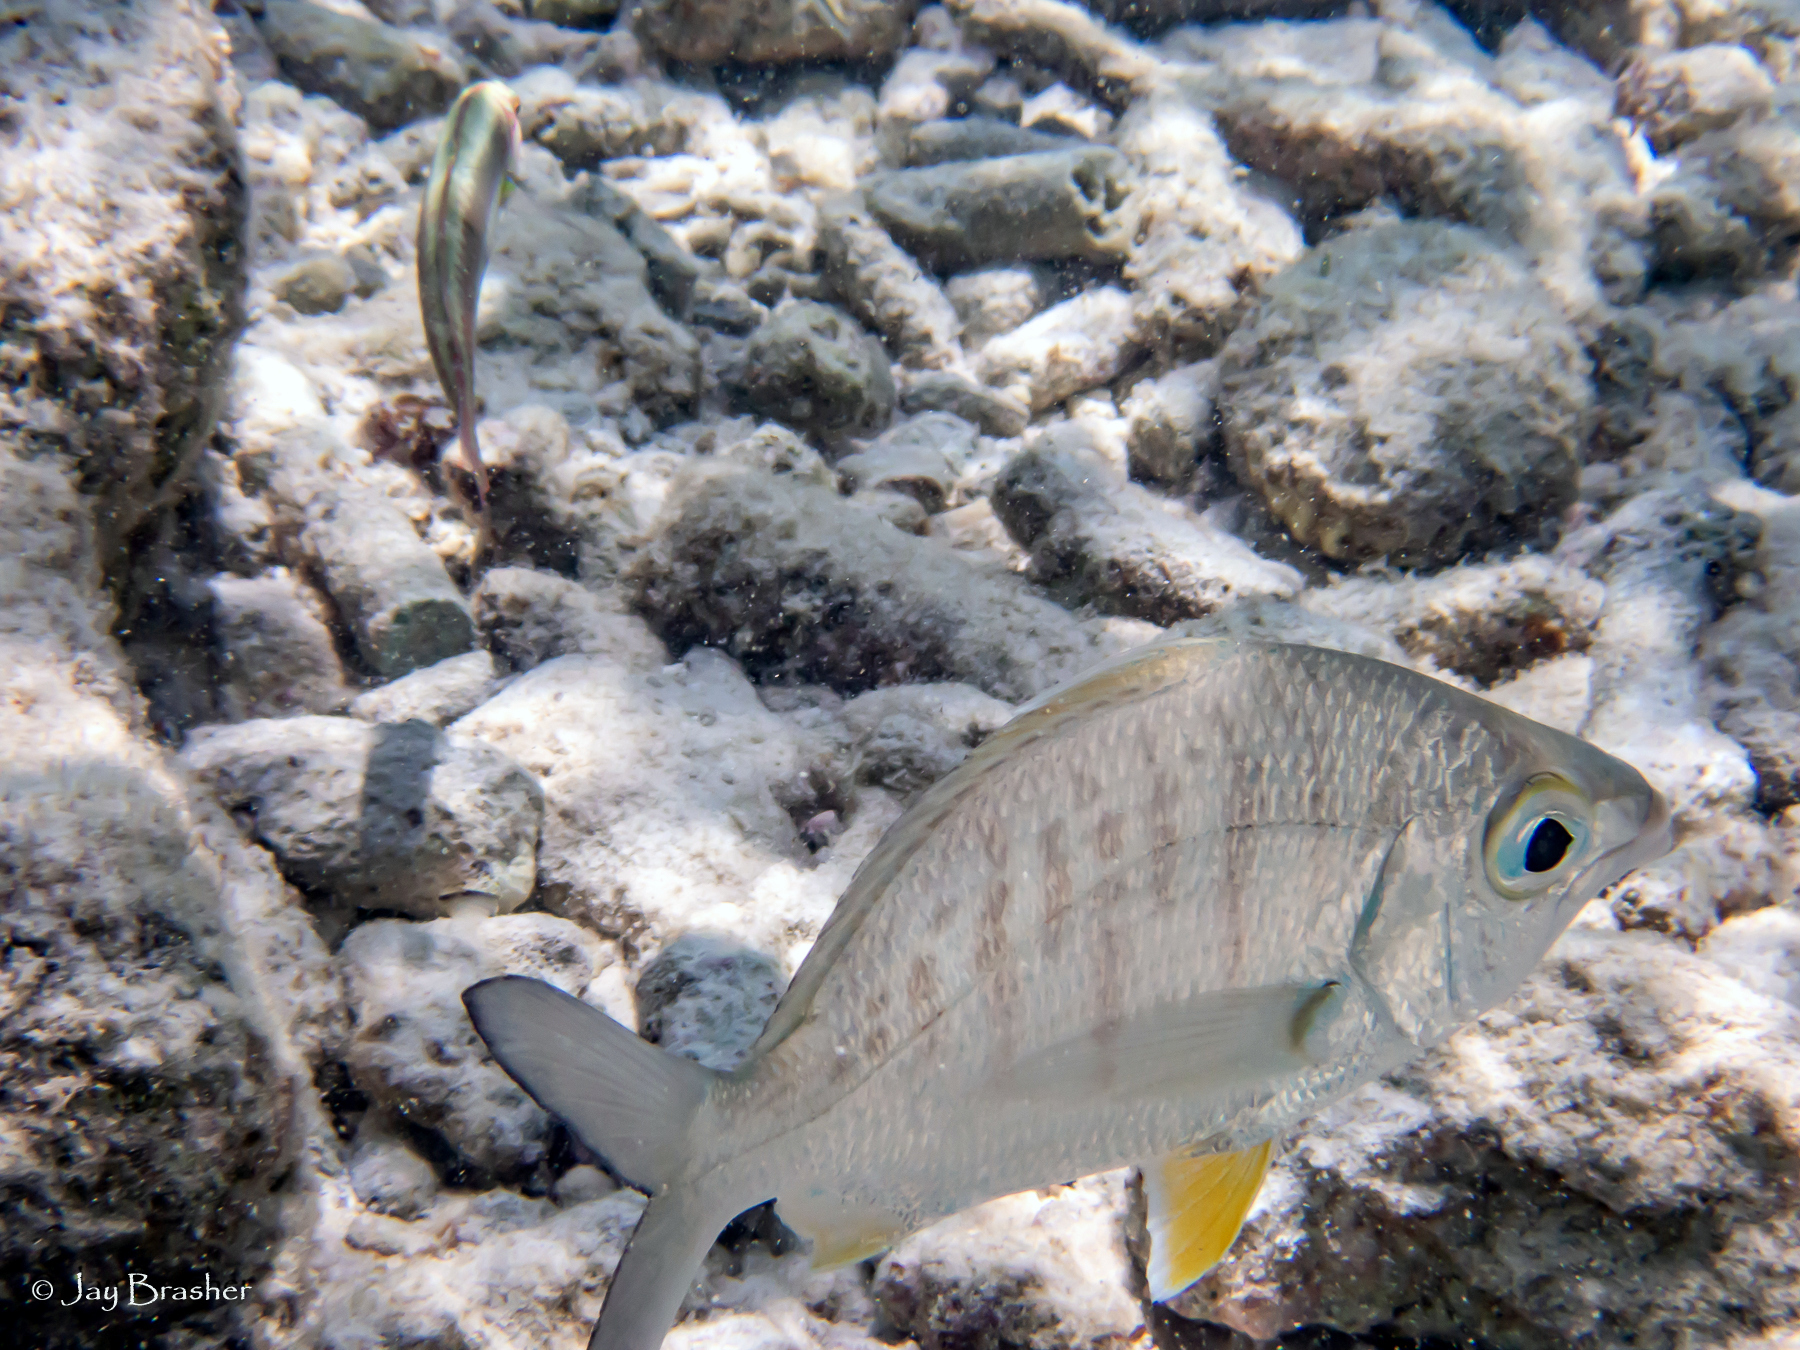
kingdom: Animalia
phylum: Chordata
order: Perciformes
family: Gerreidae
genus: Gerres
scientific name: Gerres cinereus
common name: Hedow
